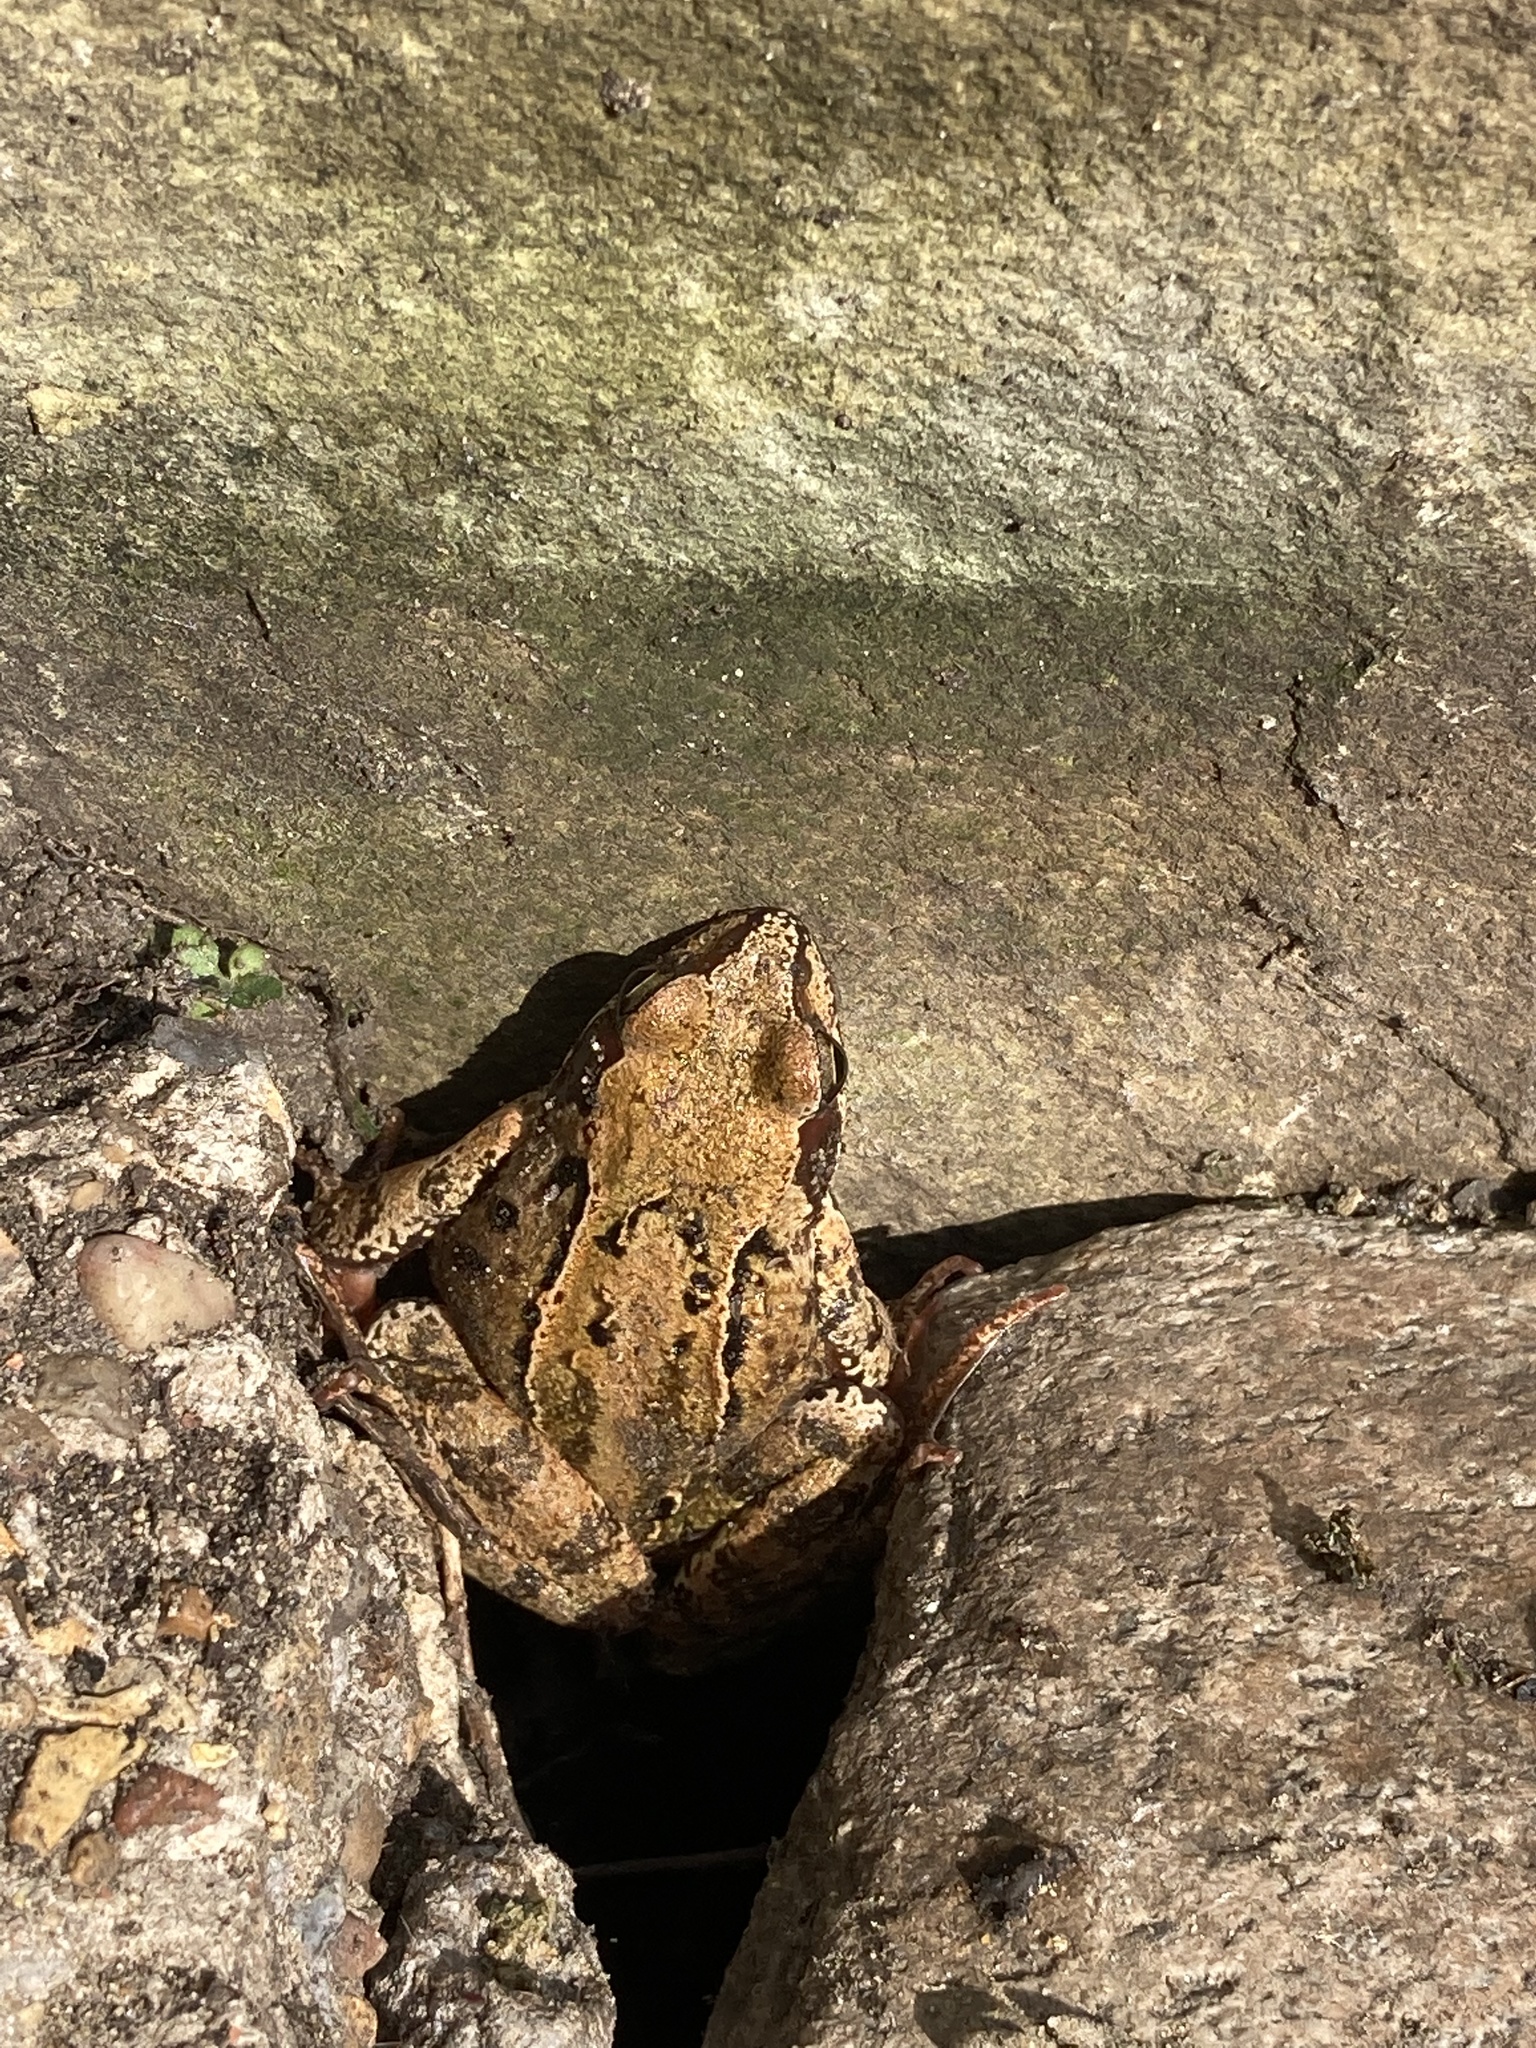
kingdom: Animalia
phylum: Chordata
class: Amphibia
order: Anura
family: Ranidae
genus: Rana
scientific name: Rana temporaria
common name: Common frog
